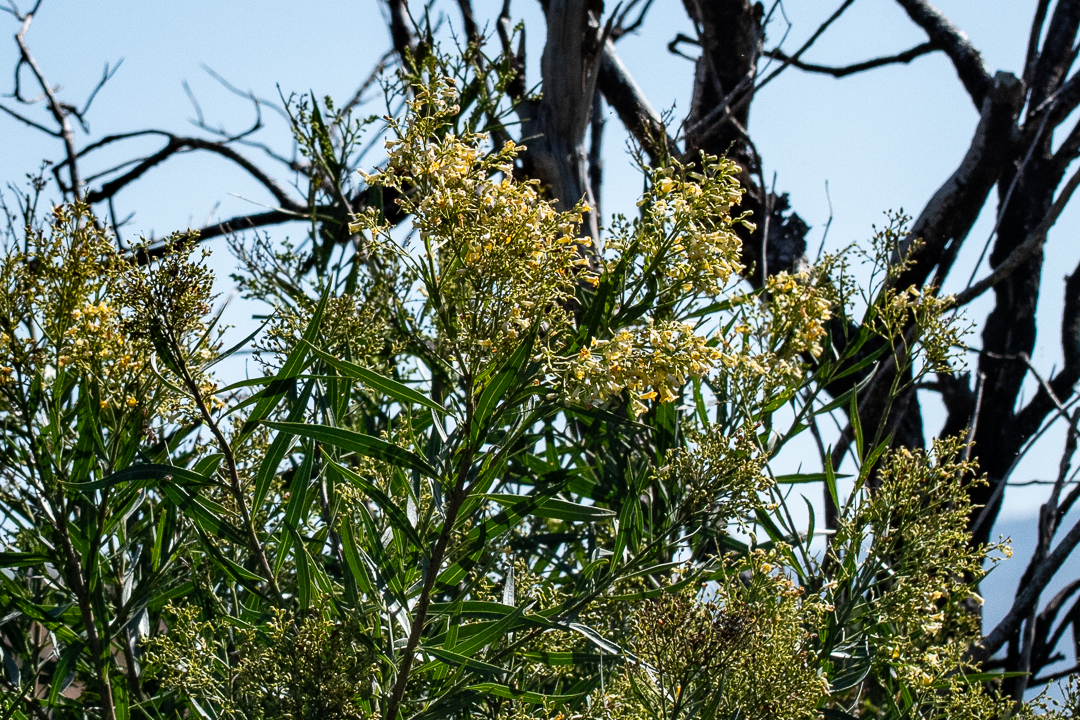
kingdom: Plantae
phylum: Tracheophyta
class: Magnoliopsida
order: Lamiales
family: Scrophulariaceae
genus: Freylinia
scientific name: Freylinia lanceolata
